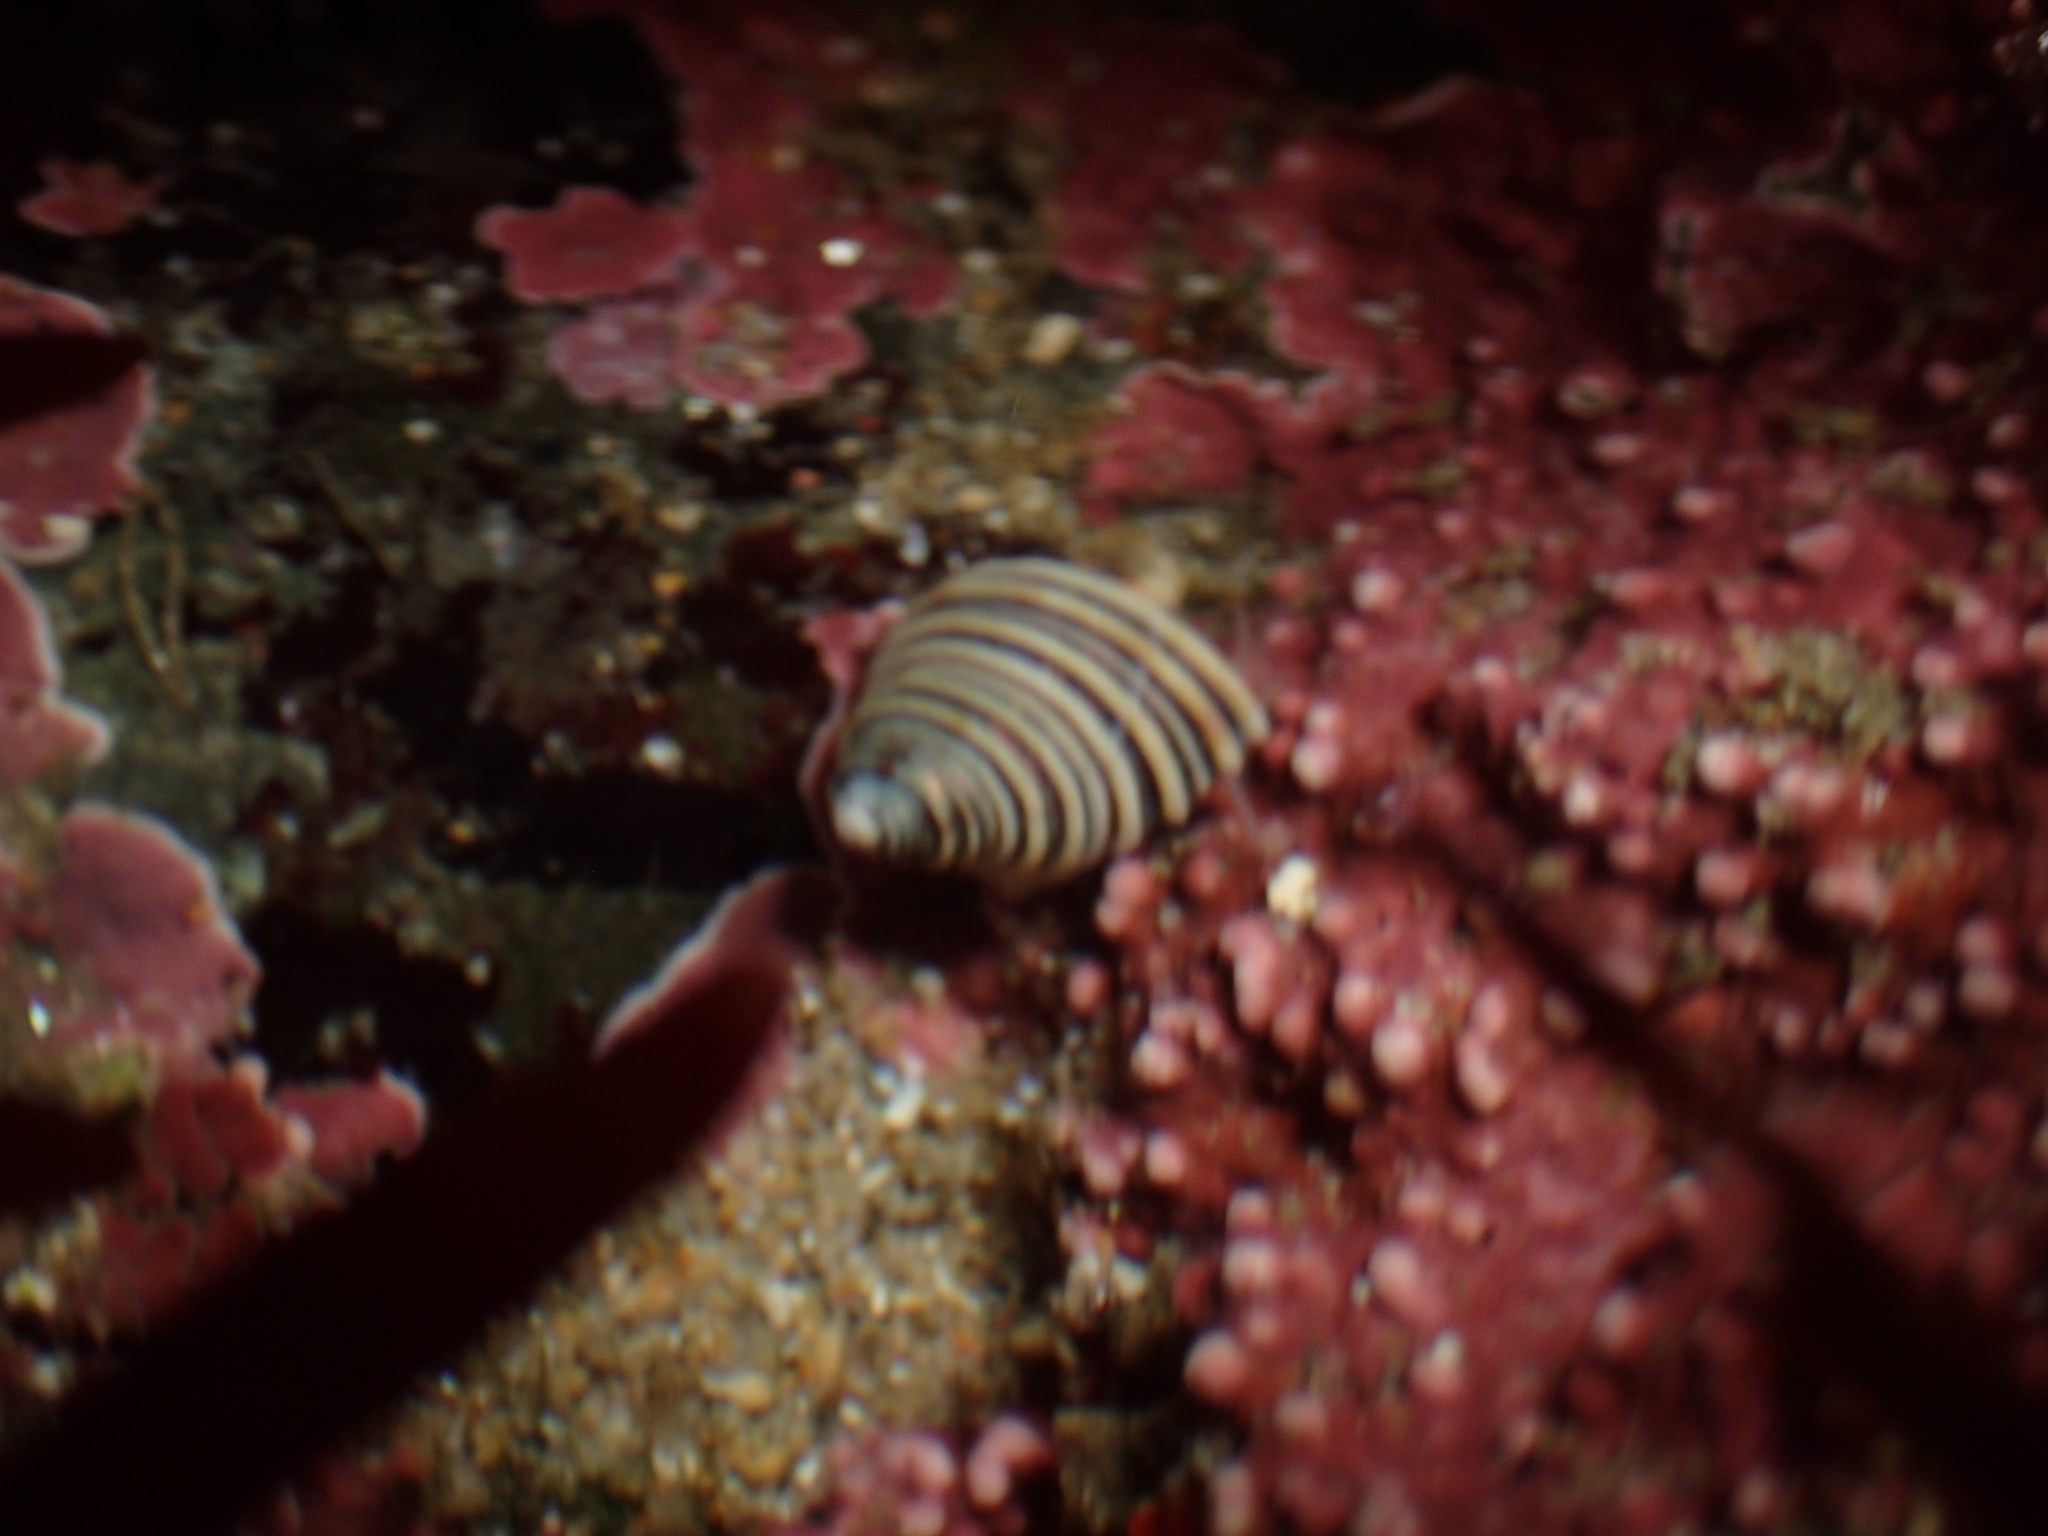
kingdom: Animalia
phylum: Mollusca
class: Gastropoda
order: Trochida
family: Calliostomatidae
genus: Calliostoma
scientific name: Calliostoma canaliculatum
